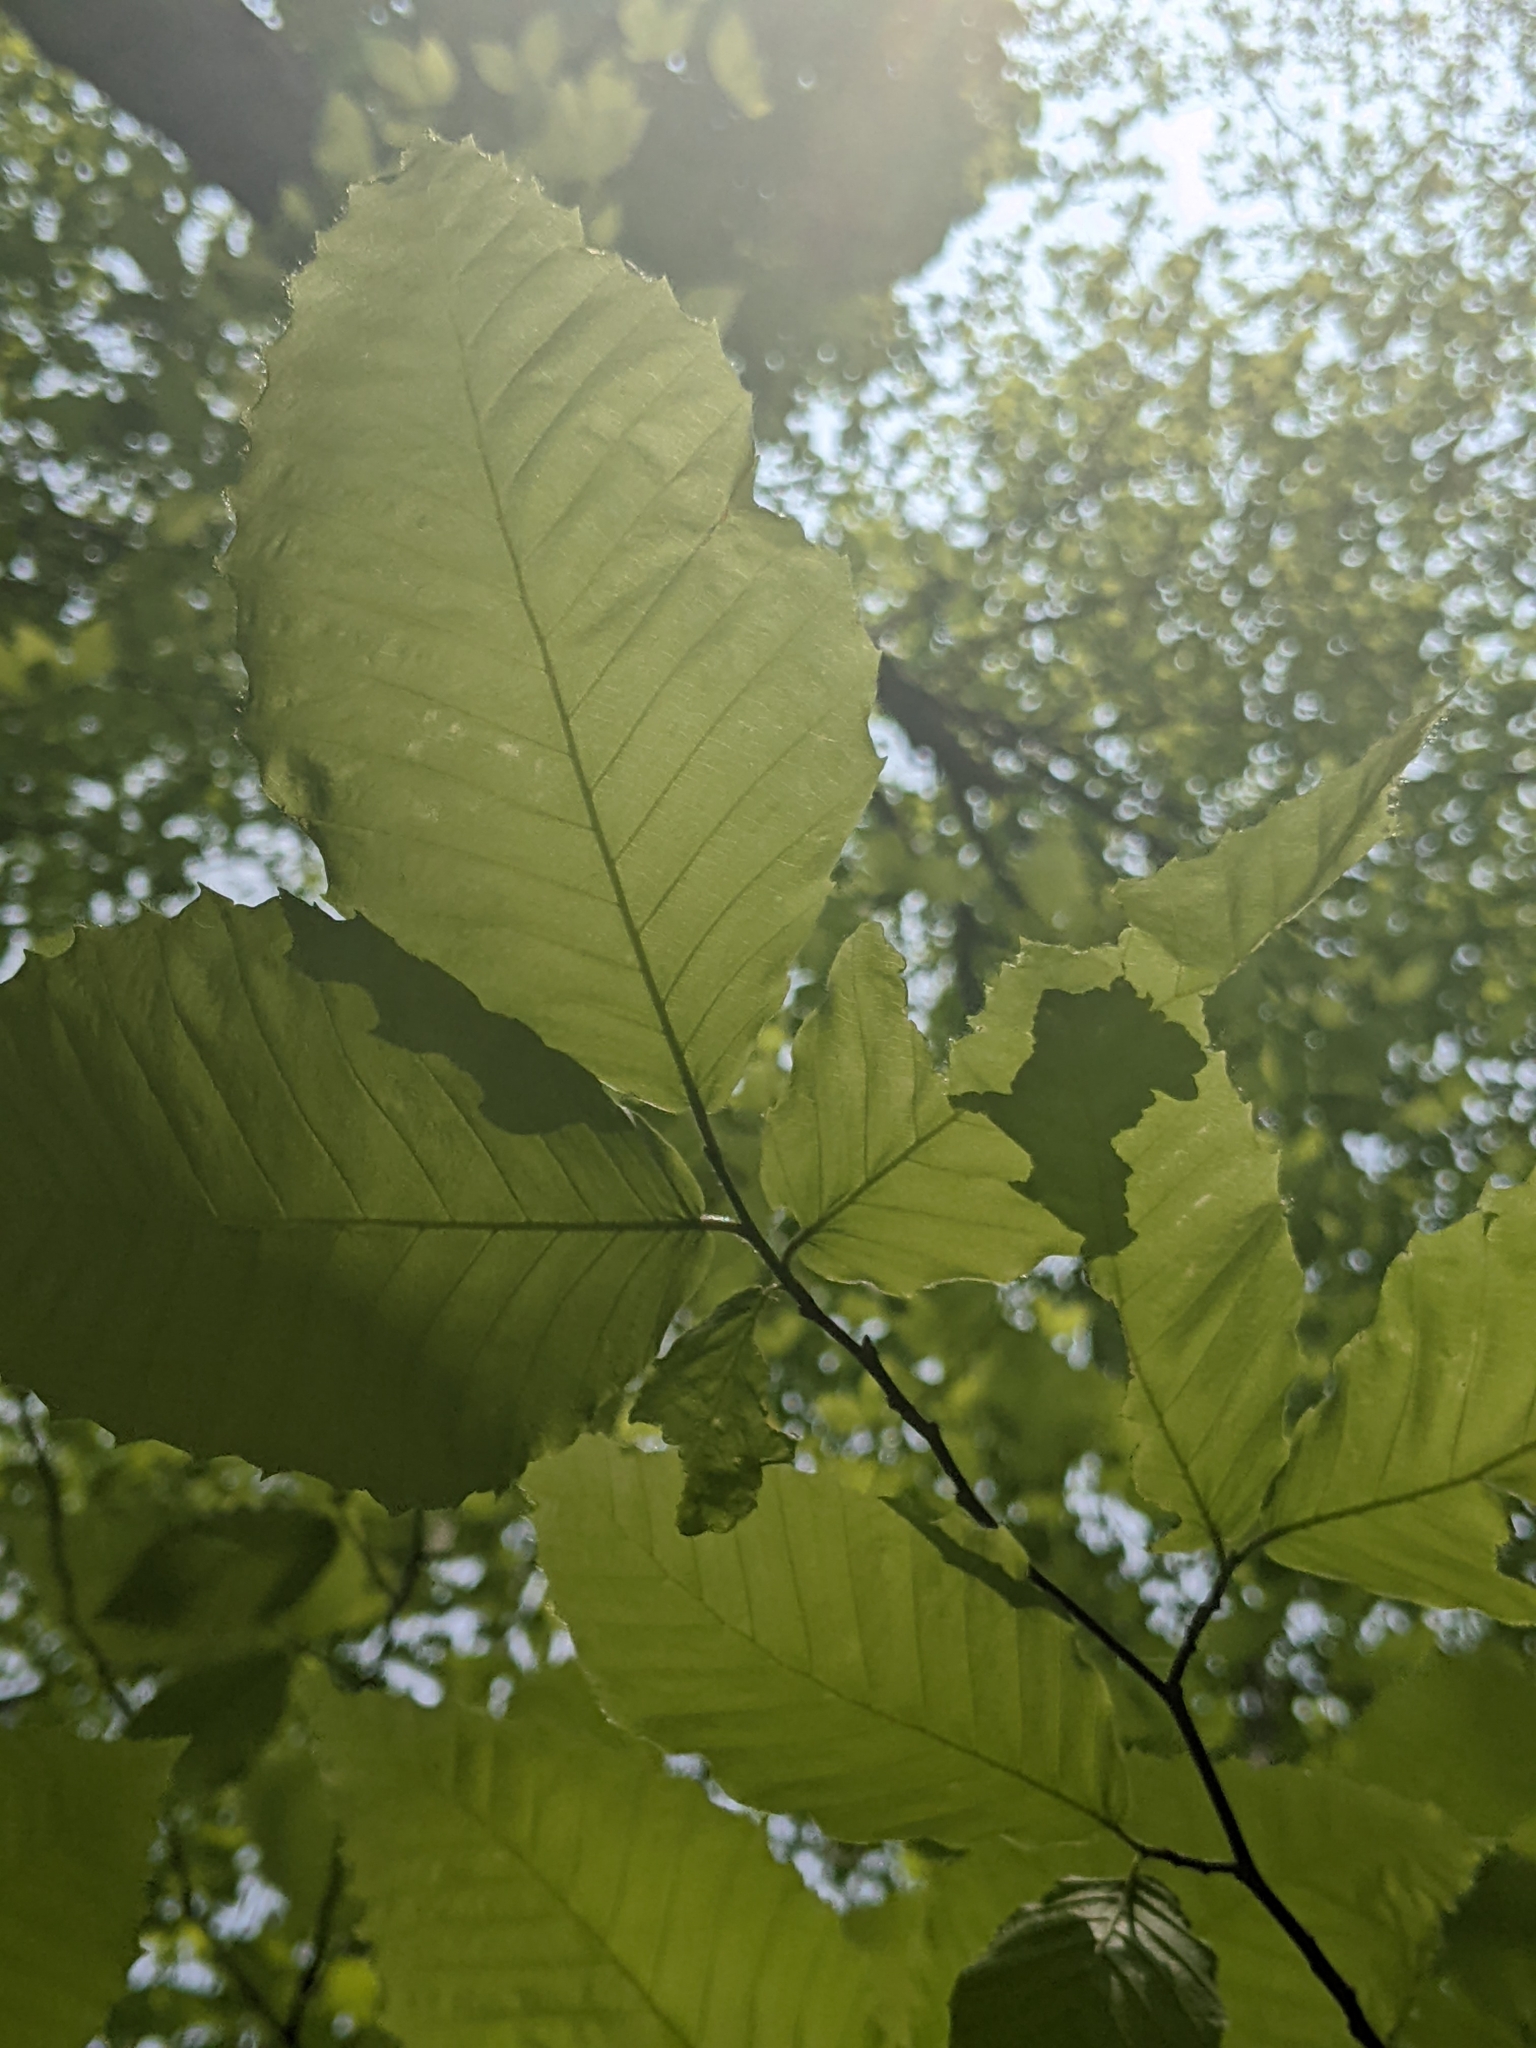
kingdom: Animalia
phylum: Nematoda
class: Chromadorea
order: Rhabditida
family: Anguinidae
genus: Litylenchus
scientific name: Litylenchus crenatae
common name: Beech leaf disease
